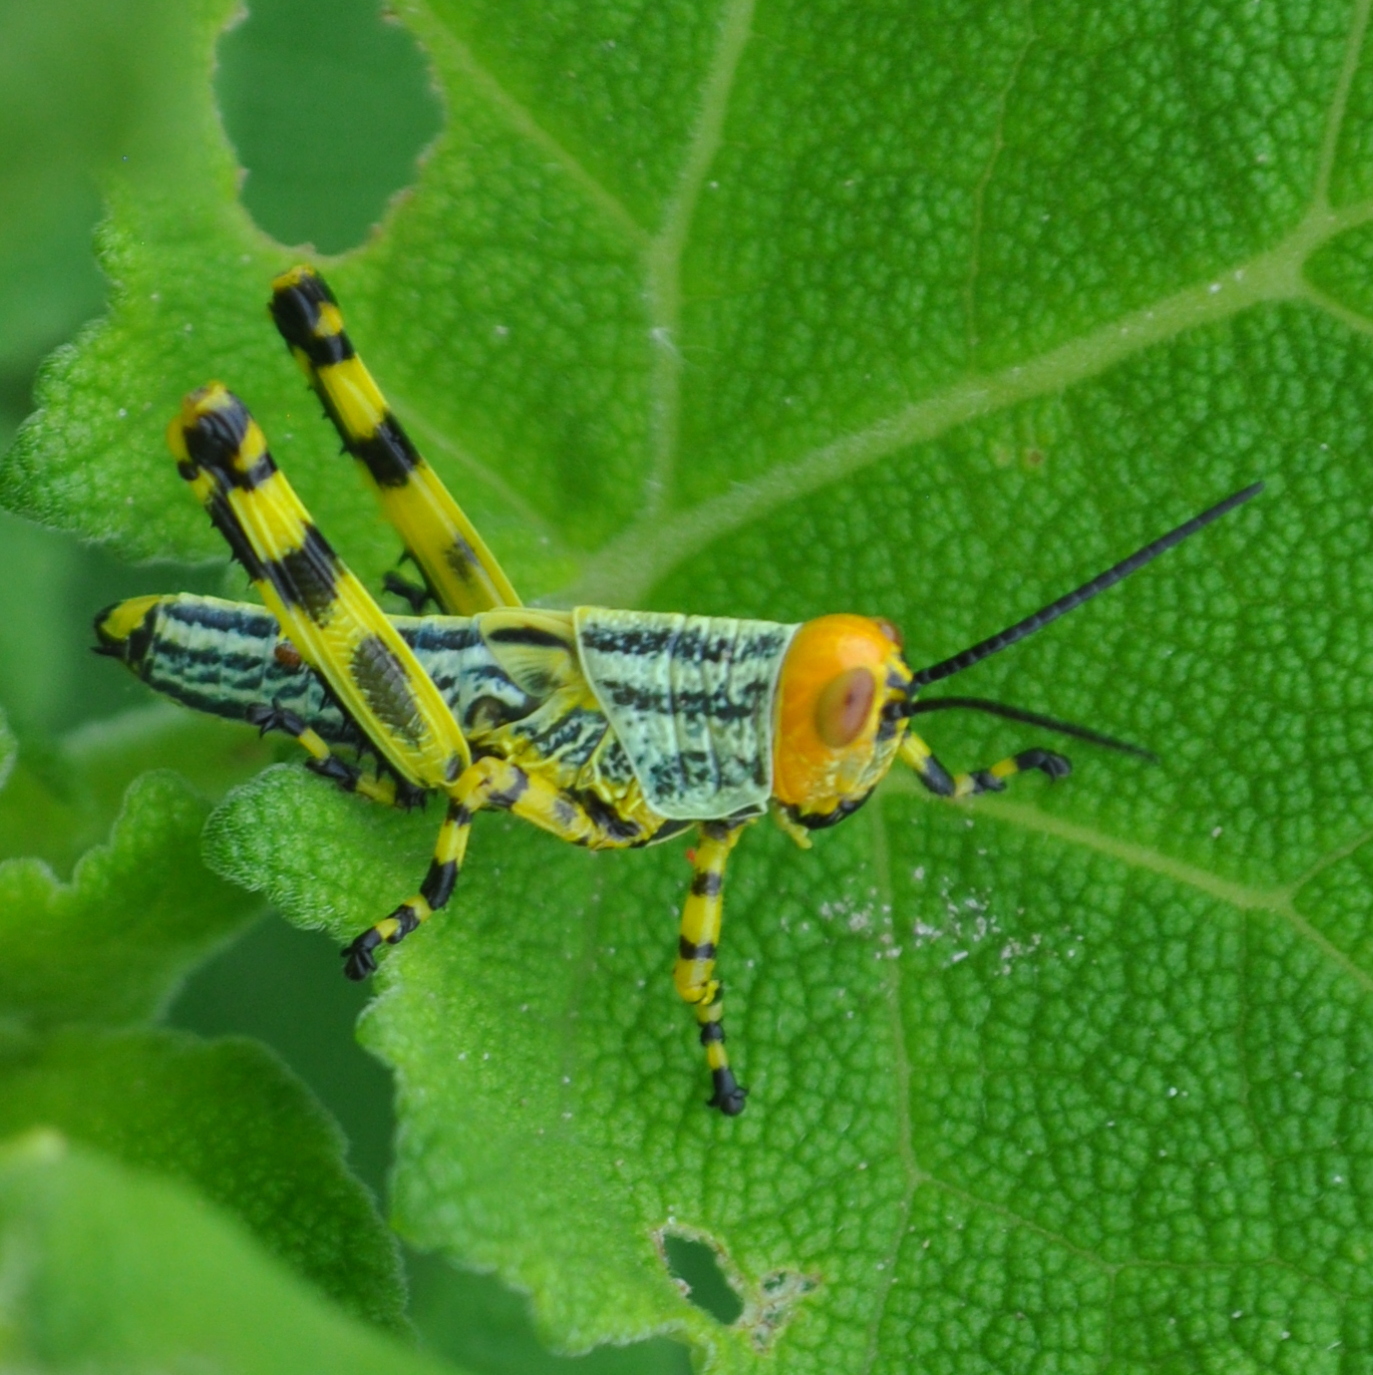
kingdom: Animalia
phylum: Arthropoda
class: Insecta
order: Orthoptera
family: Romaleidae
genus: Zoniopoda
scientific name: Zoniopoda tarsata
